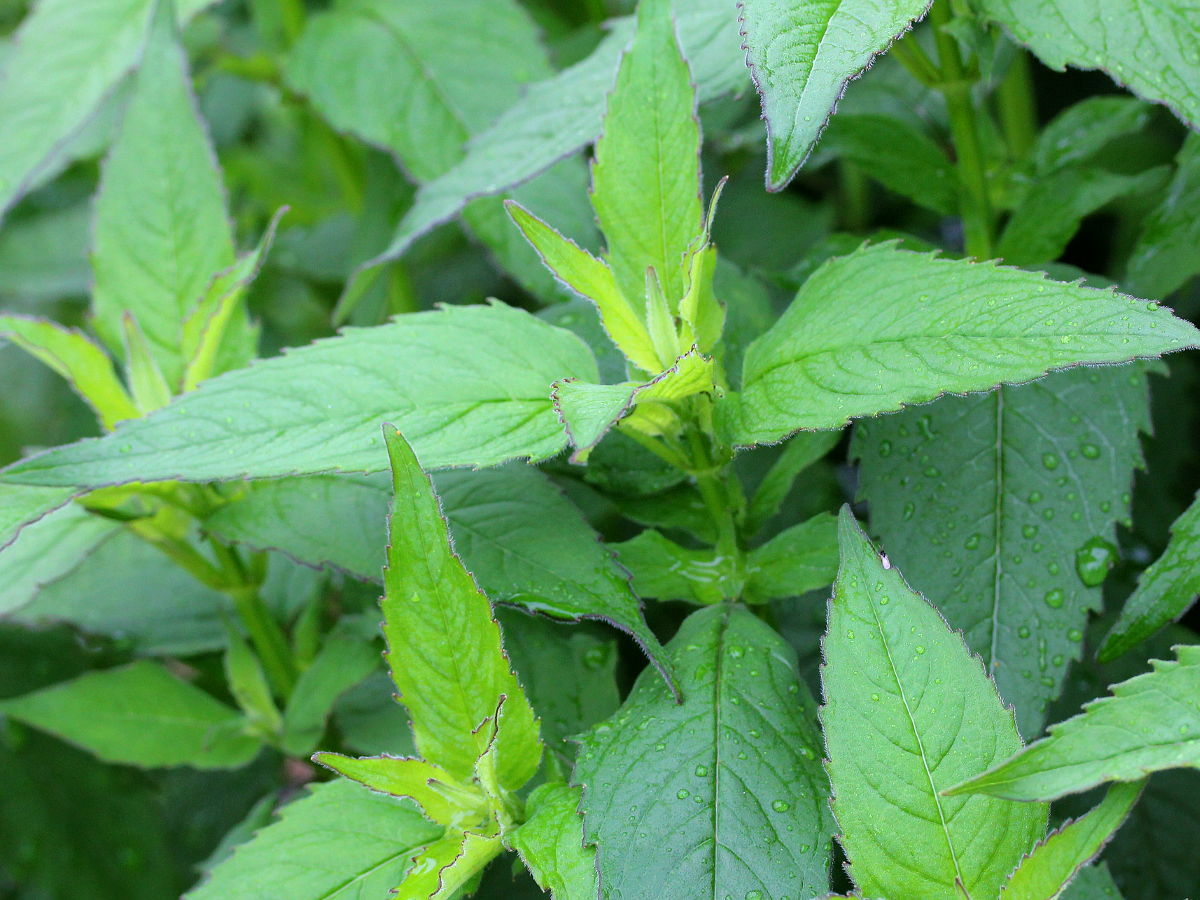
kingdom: Plantae
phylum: Tracheophyta
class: Magnoliopsida
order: Lamiales
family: Lamiaceae
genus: Monarda
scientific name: Monarda fistulosa
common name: Purple beebalm
